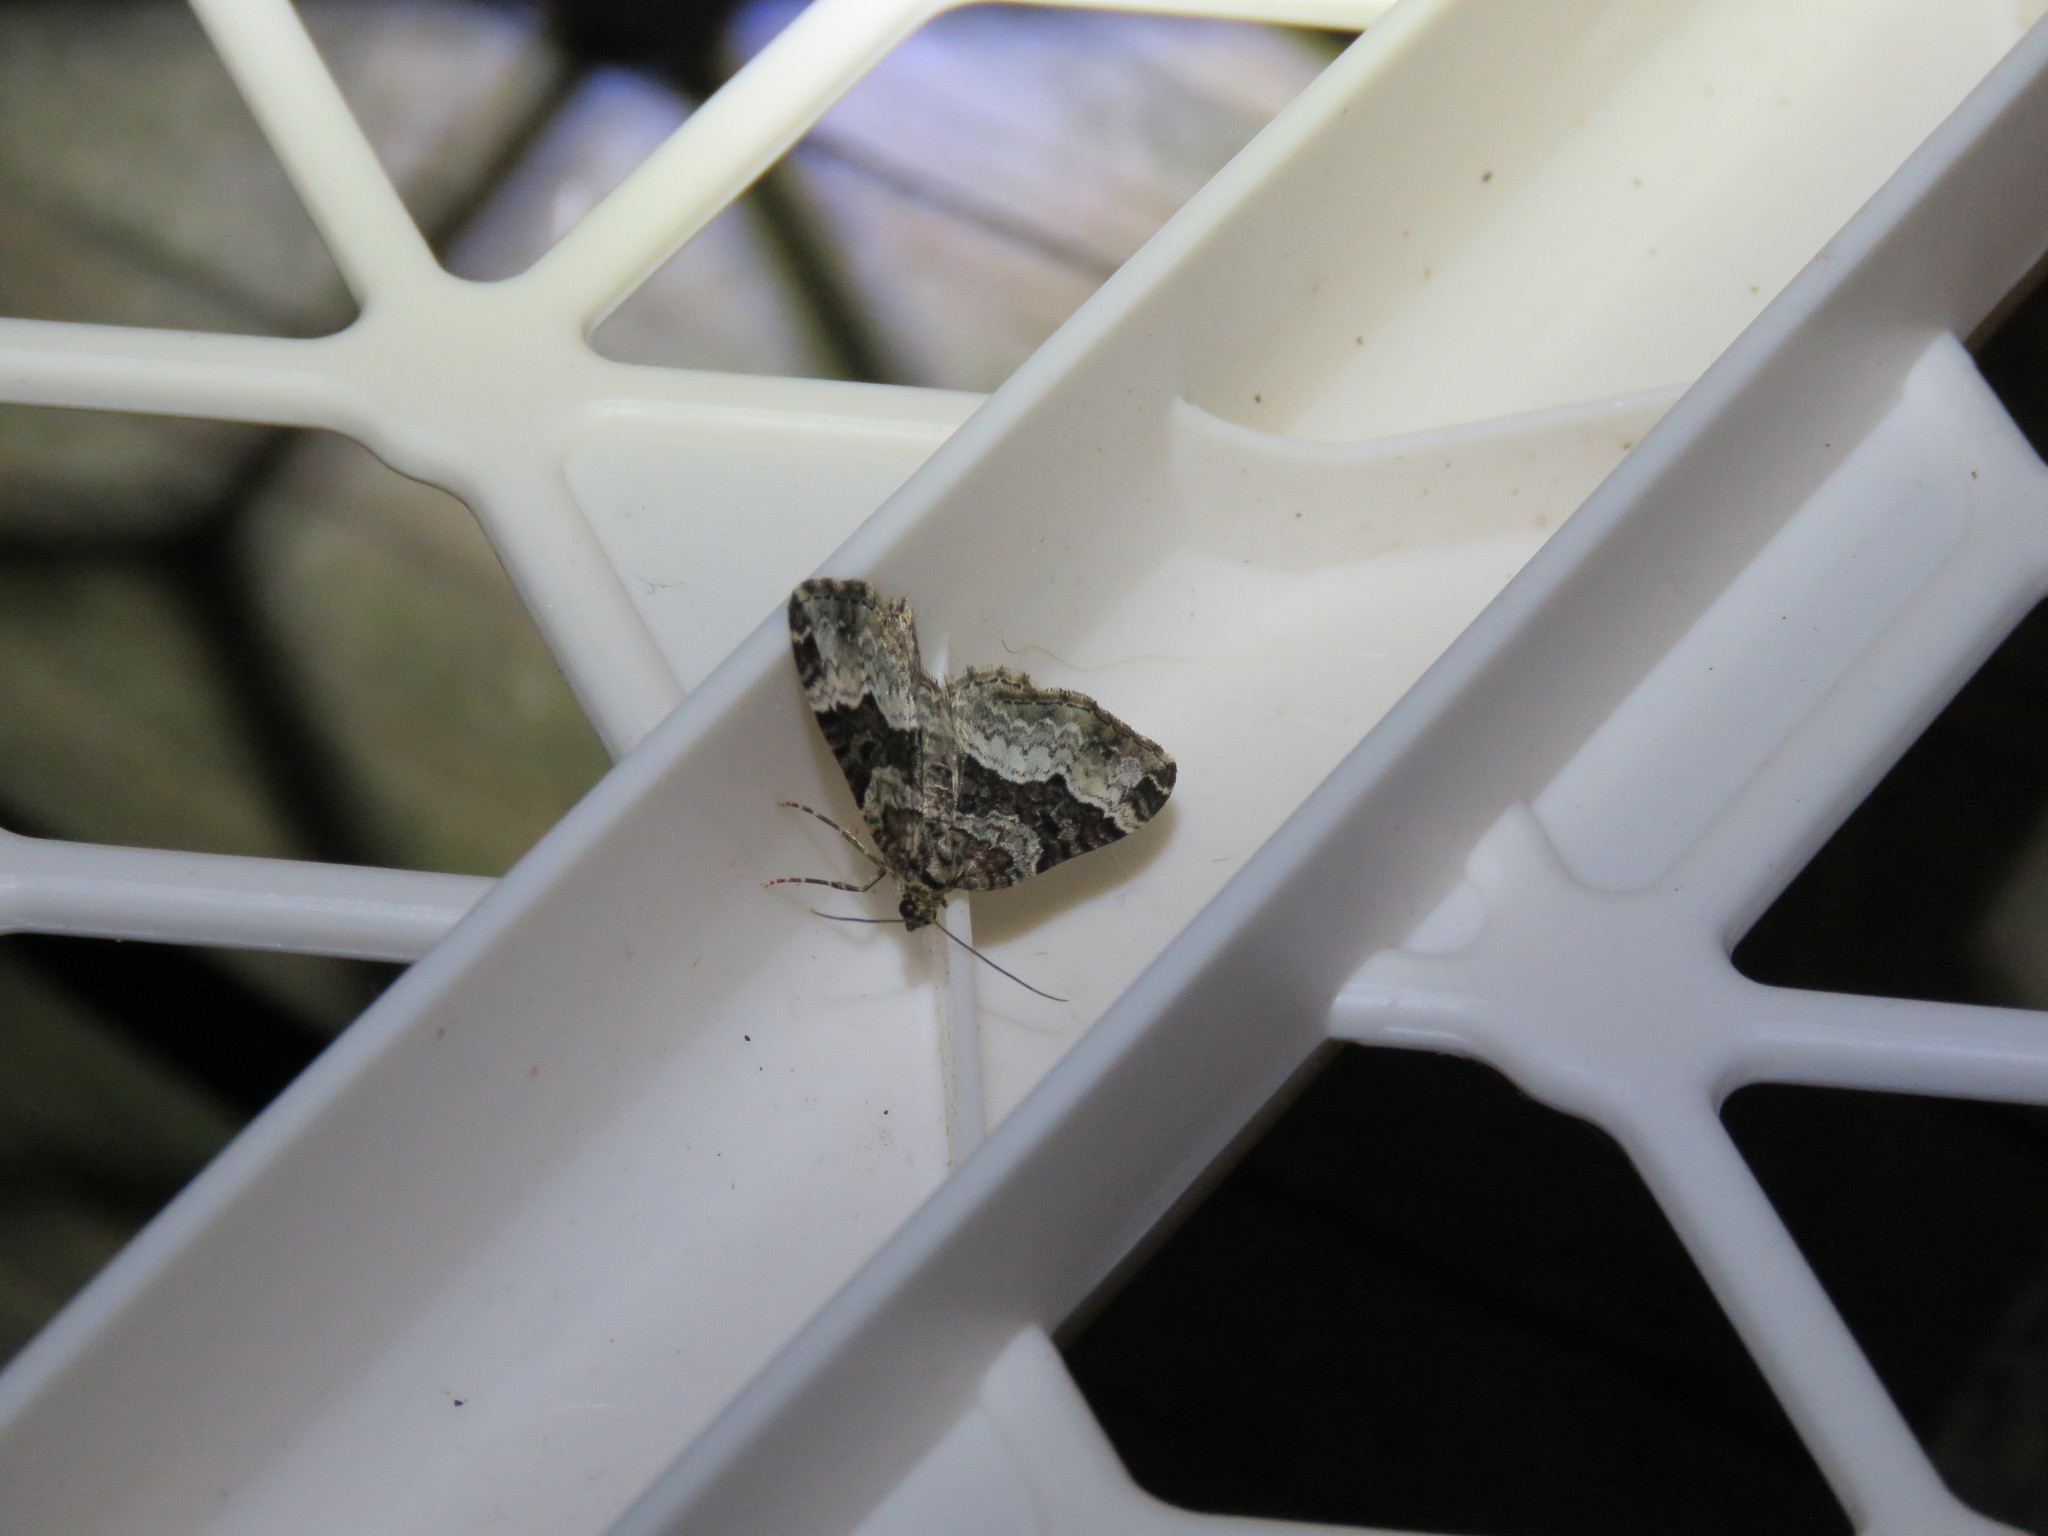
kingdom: Animalia
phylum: Arthropoda
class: Insecta
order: Lepidoptera
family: Geometridae
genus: Euphyia
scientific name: Euphyia intermediata
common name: Sharp-angled carpet
